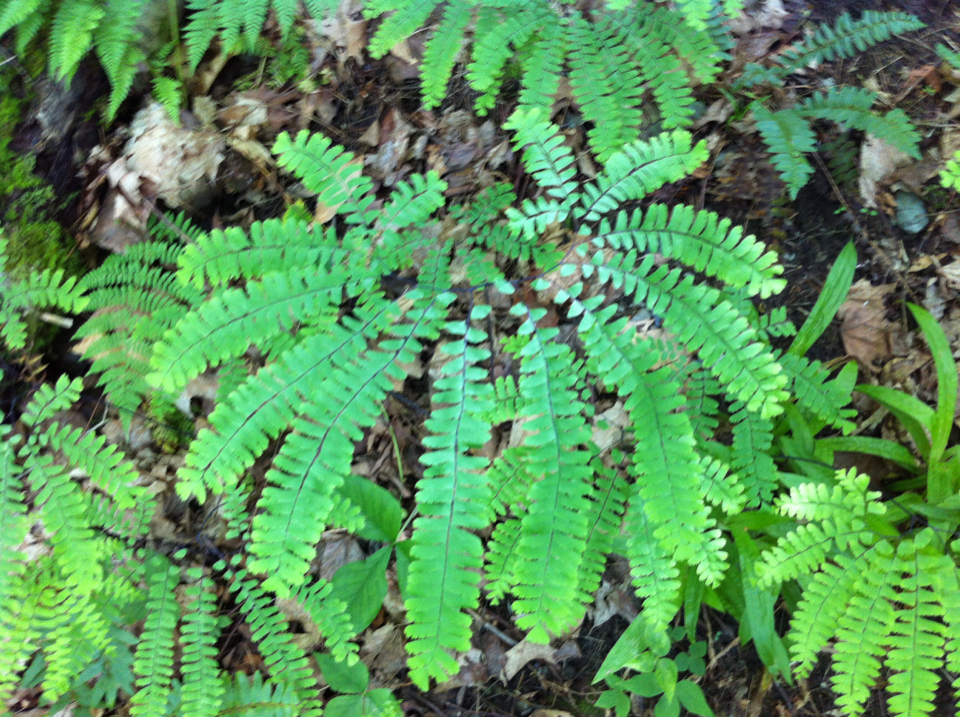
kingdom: Plantae
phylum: Tracheophyta
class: Polypodiopsida
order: Polypodiales
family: Pteridaceae
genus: Adiantum
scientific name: Adiantum pedatum
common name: Five-finger fern
